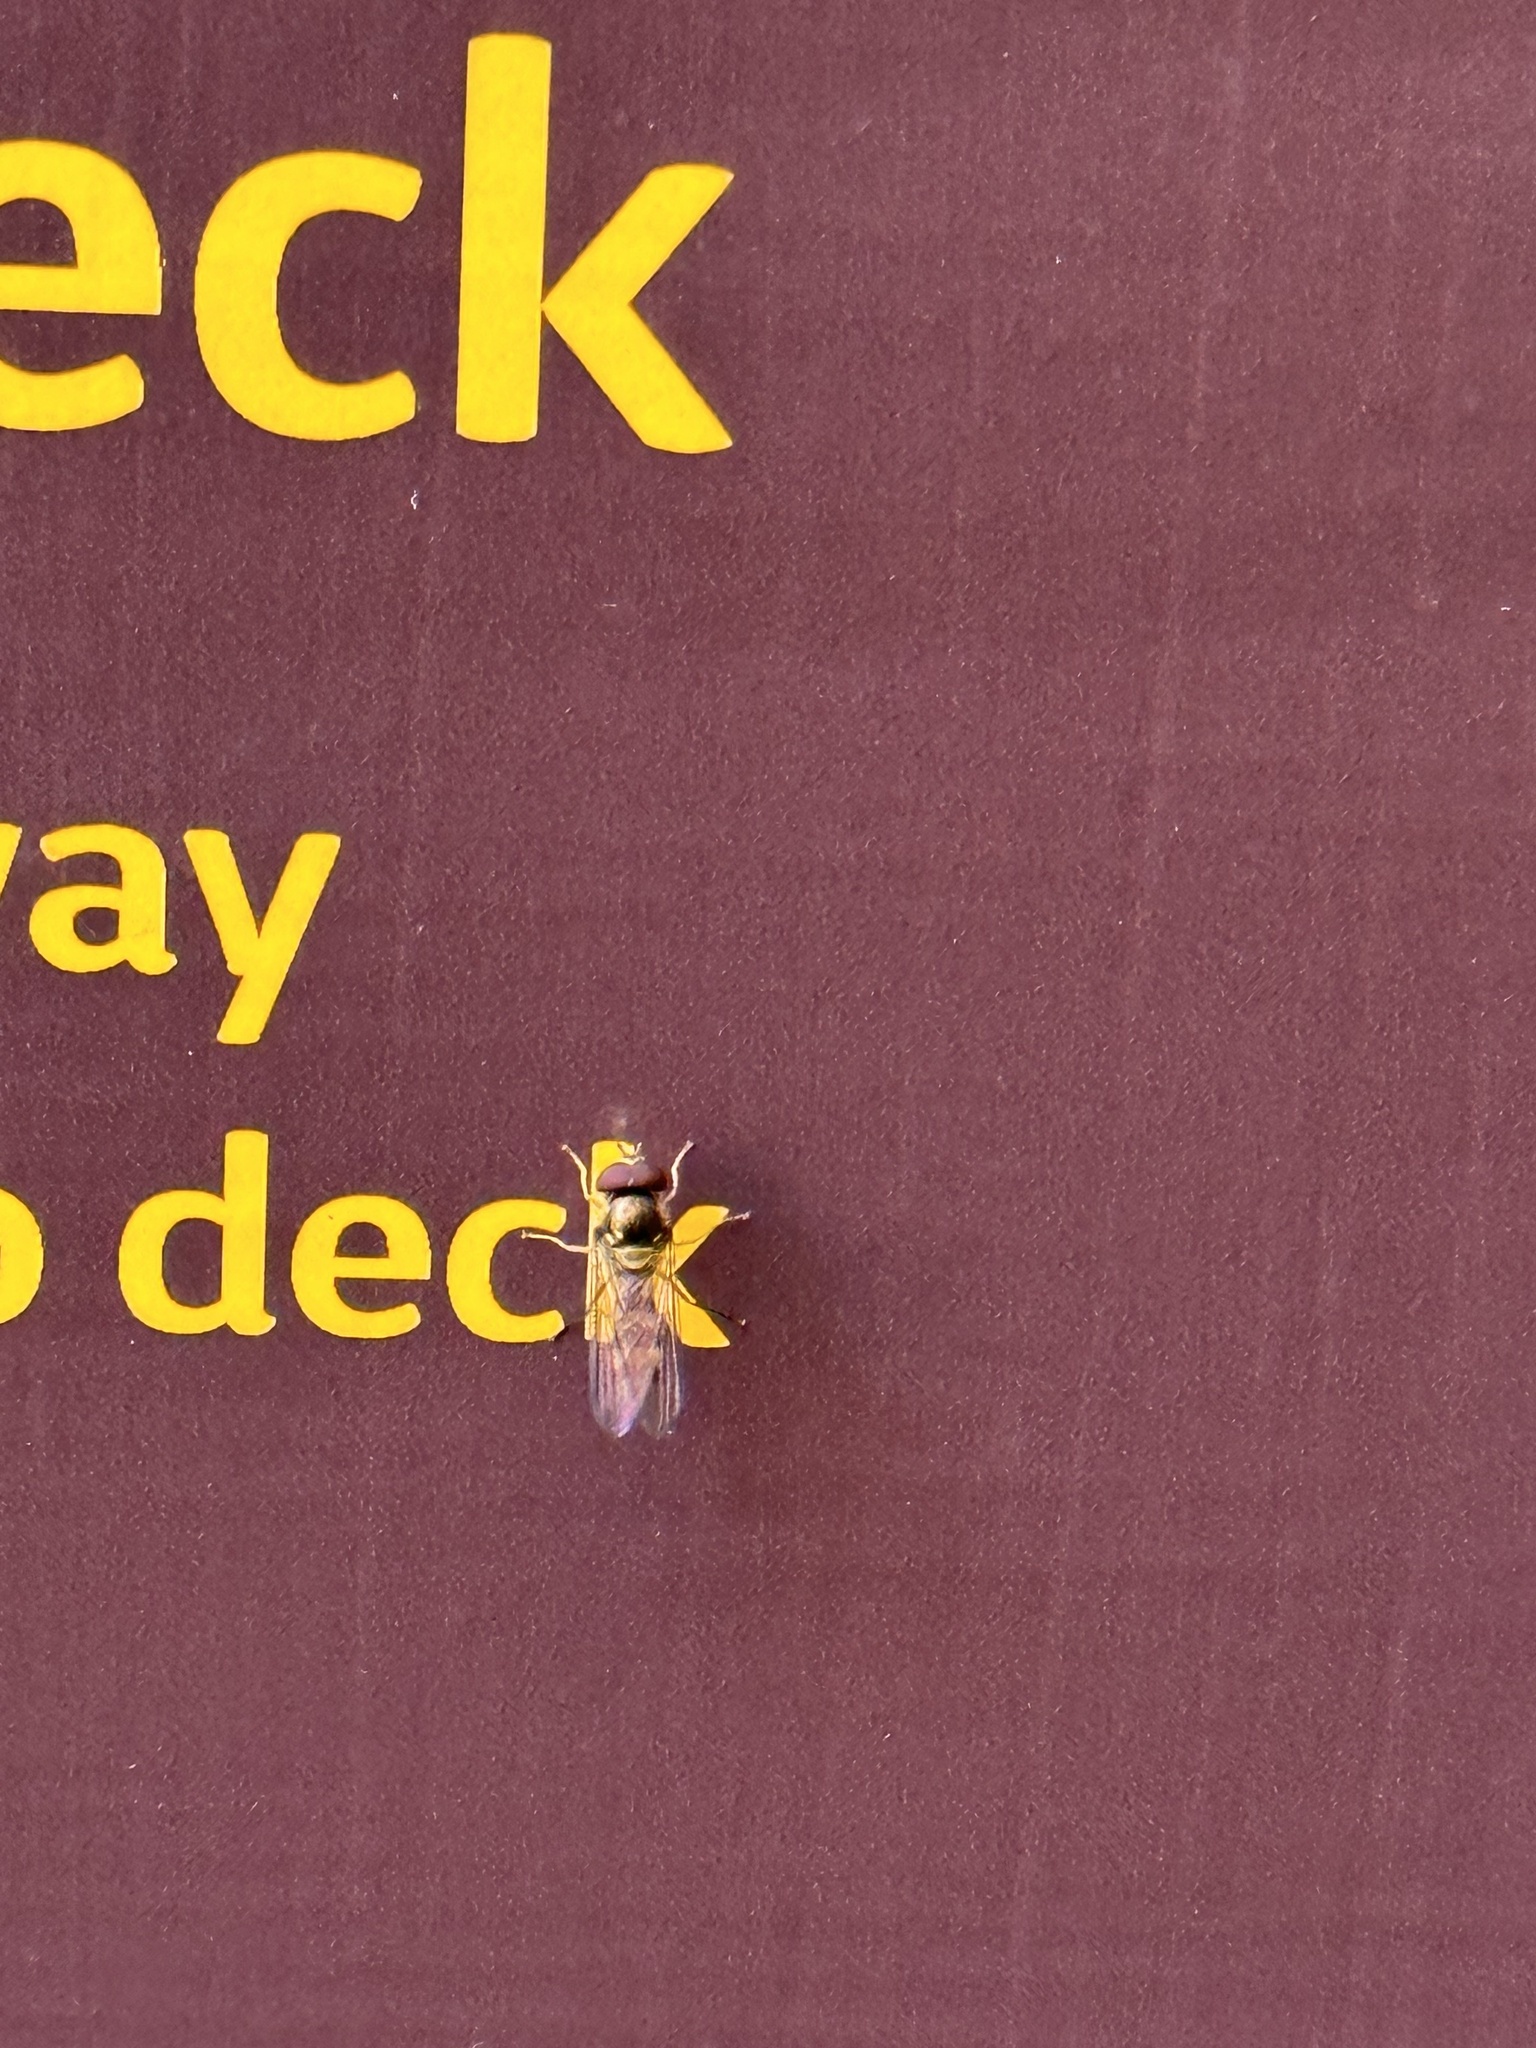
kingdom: Animalia
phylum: Arthropoda
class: Insecta
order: Diptera
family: Syrphidae
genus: Meliscaeva
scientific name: Meliscaeva cinctella
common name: American thintail fly
